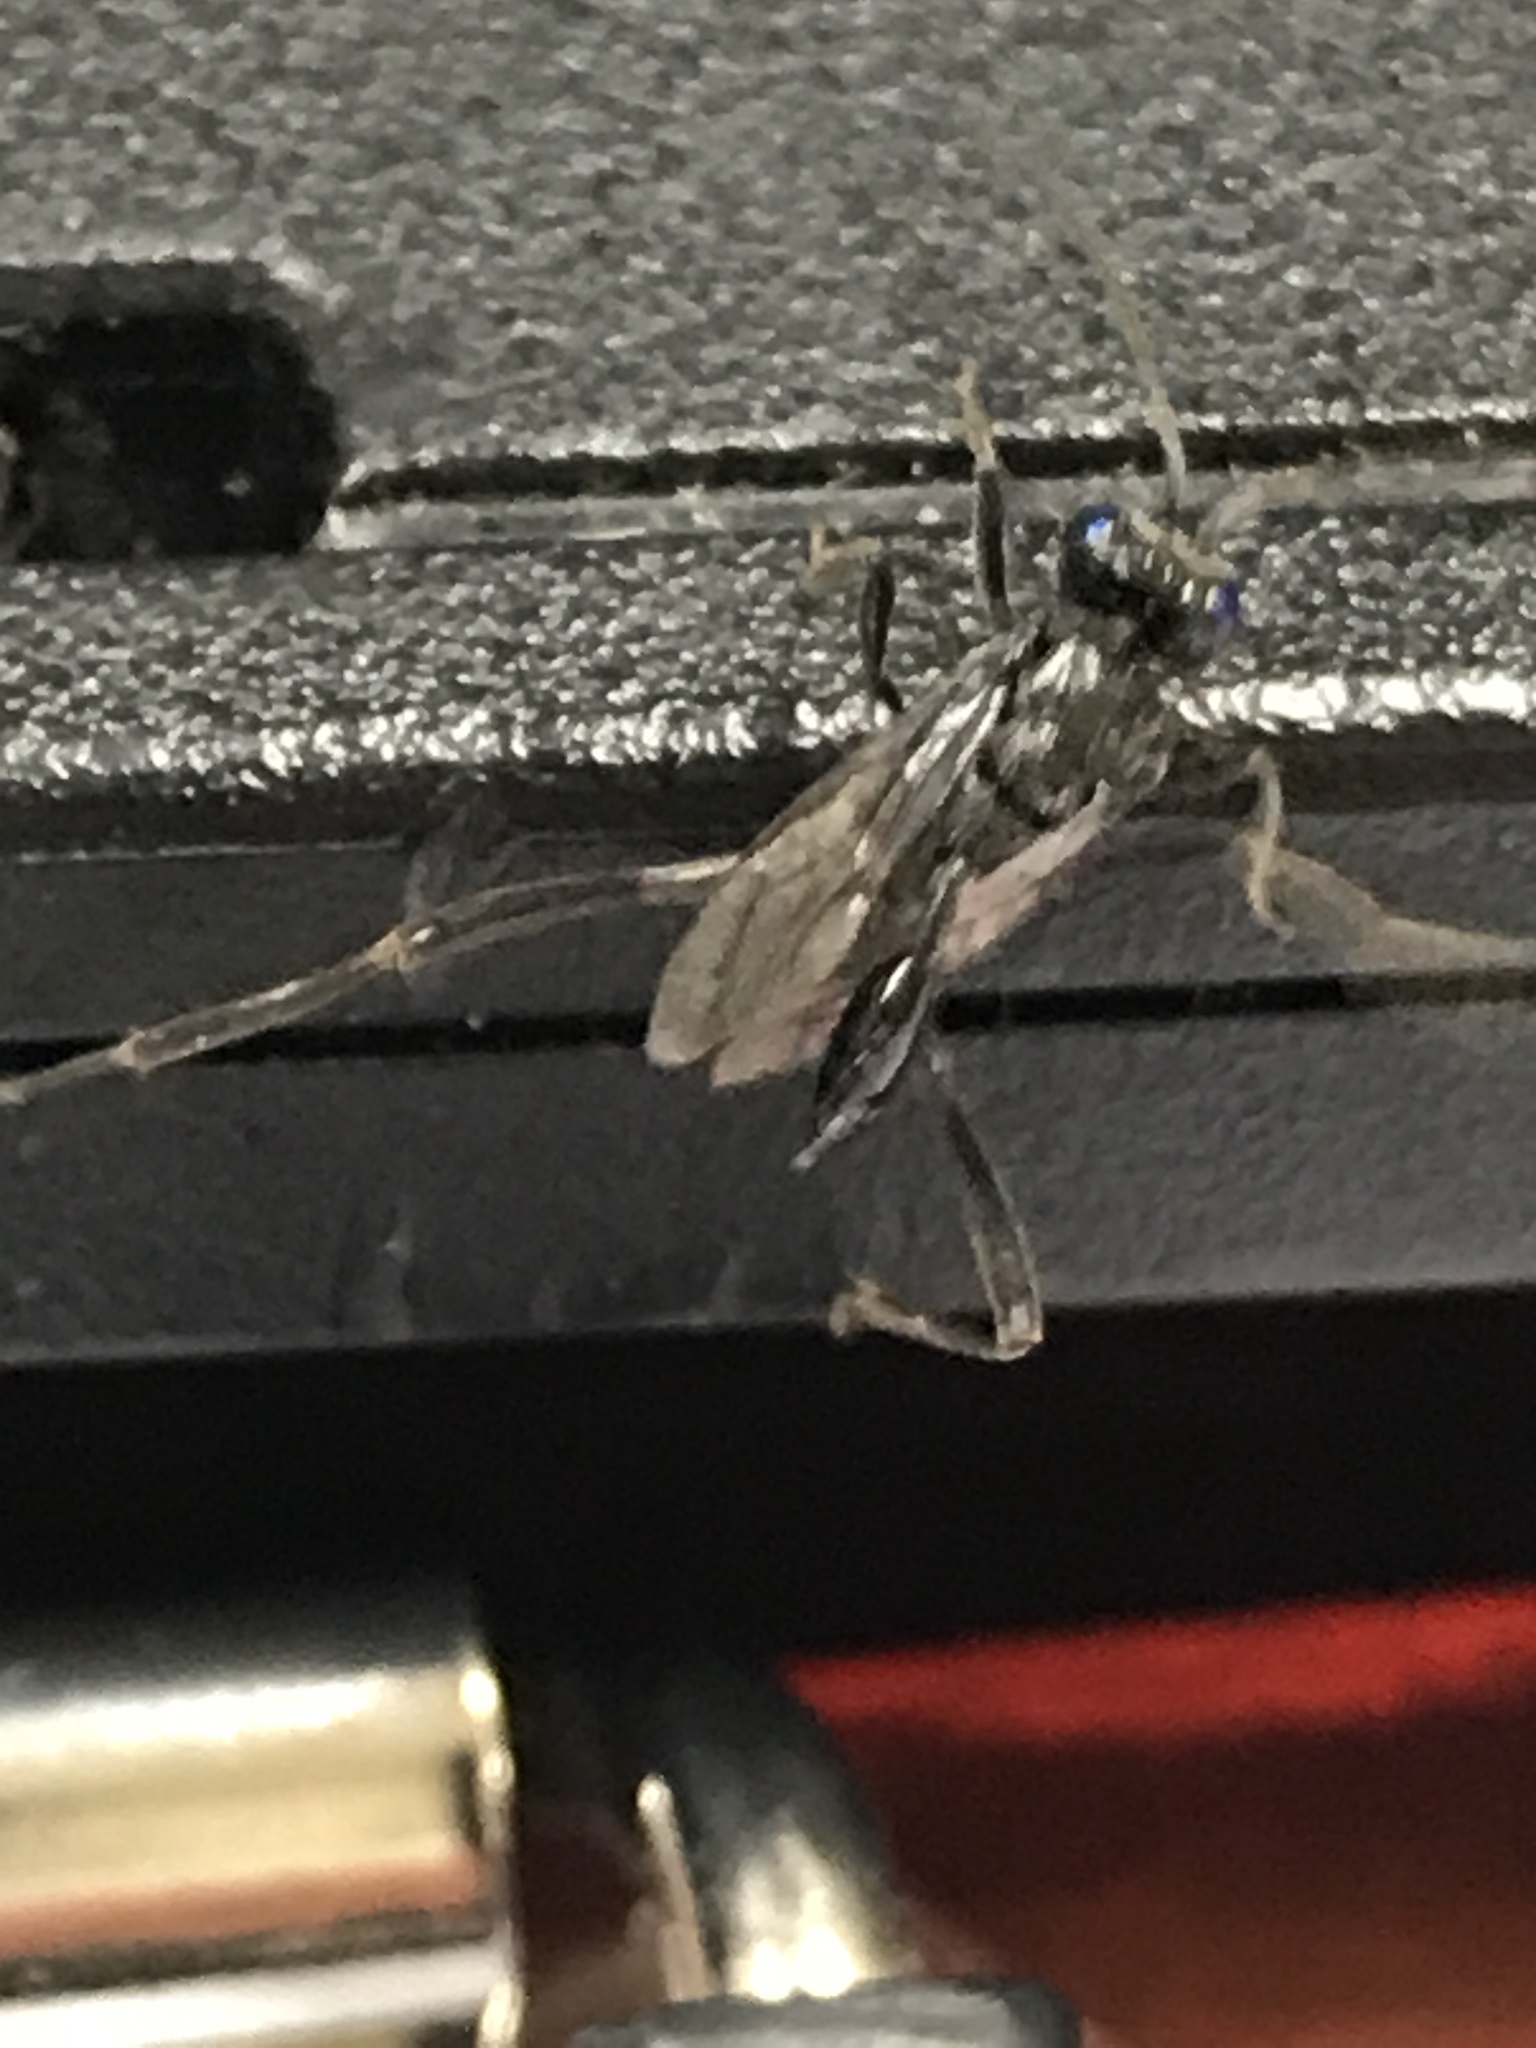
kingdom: Animalia
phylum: Arthropoda
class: Insecta
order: Hymenoptera
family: Evaniidae
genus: Evania
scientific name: Evania appendigaster
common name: Ensign wasp
